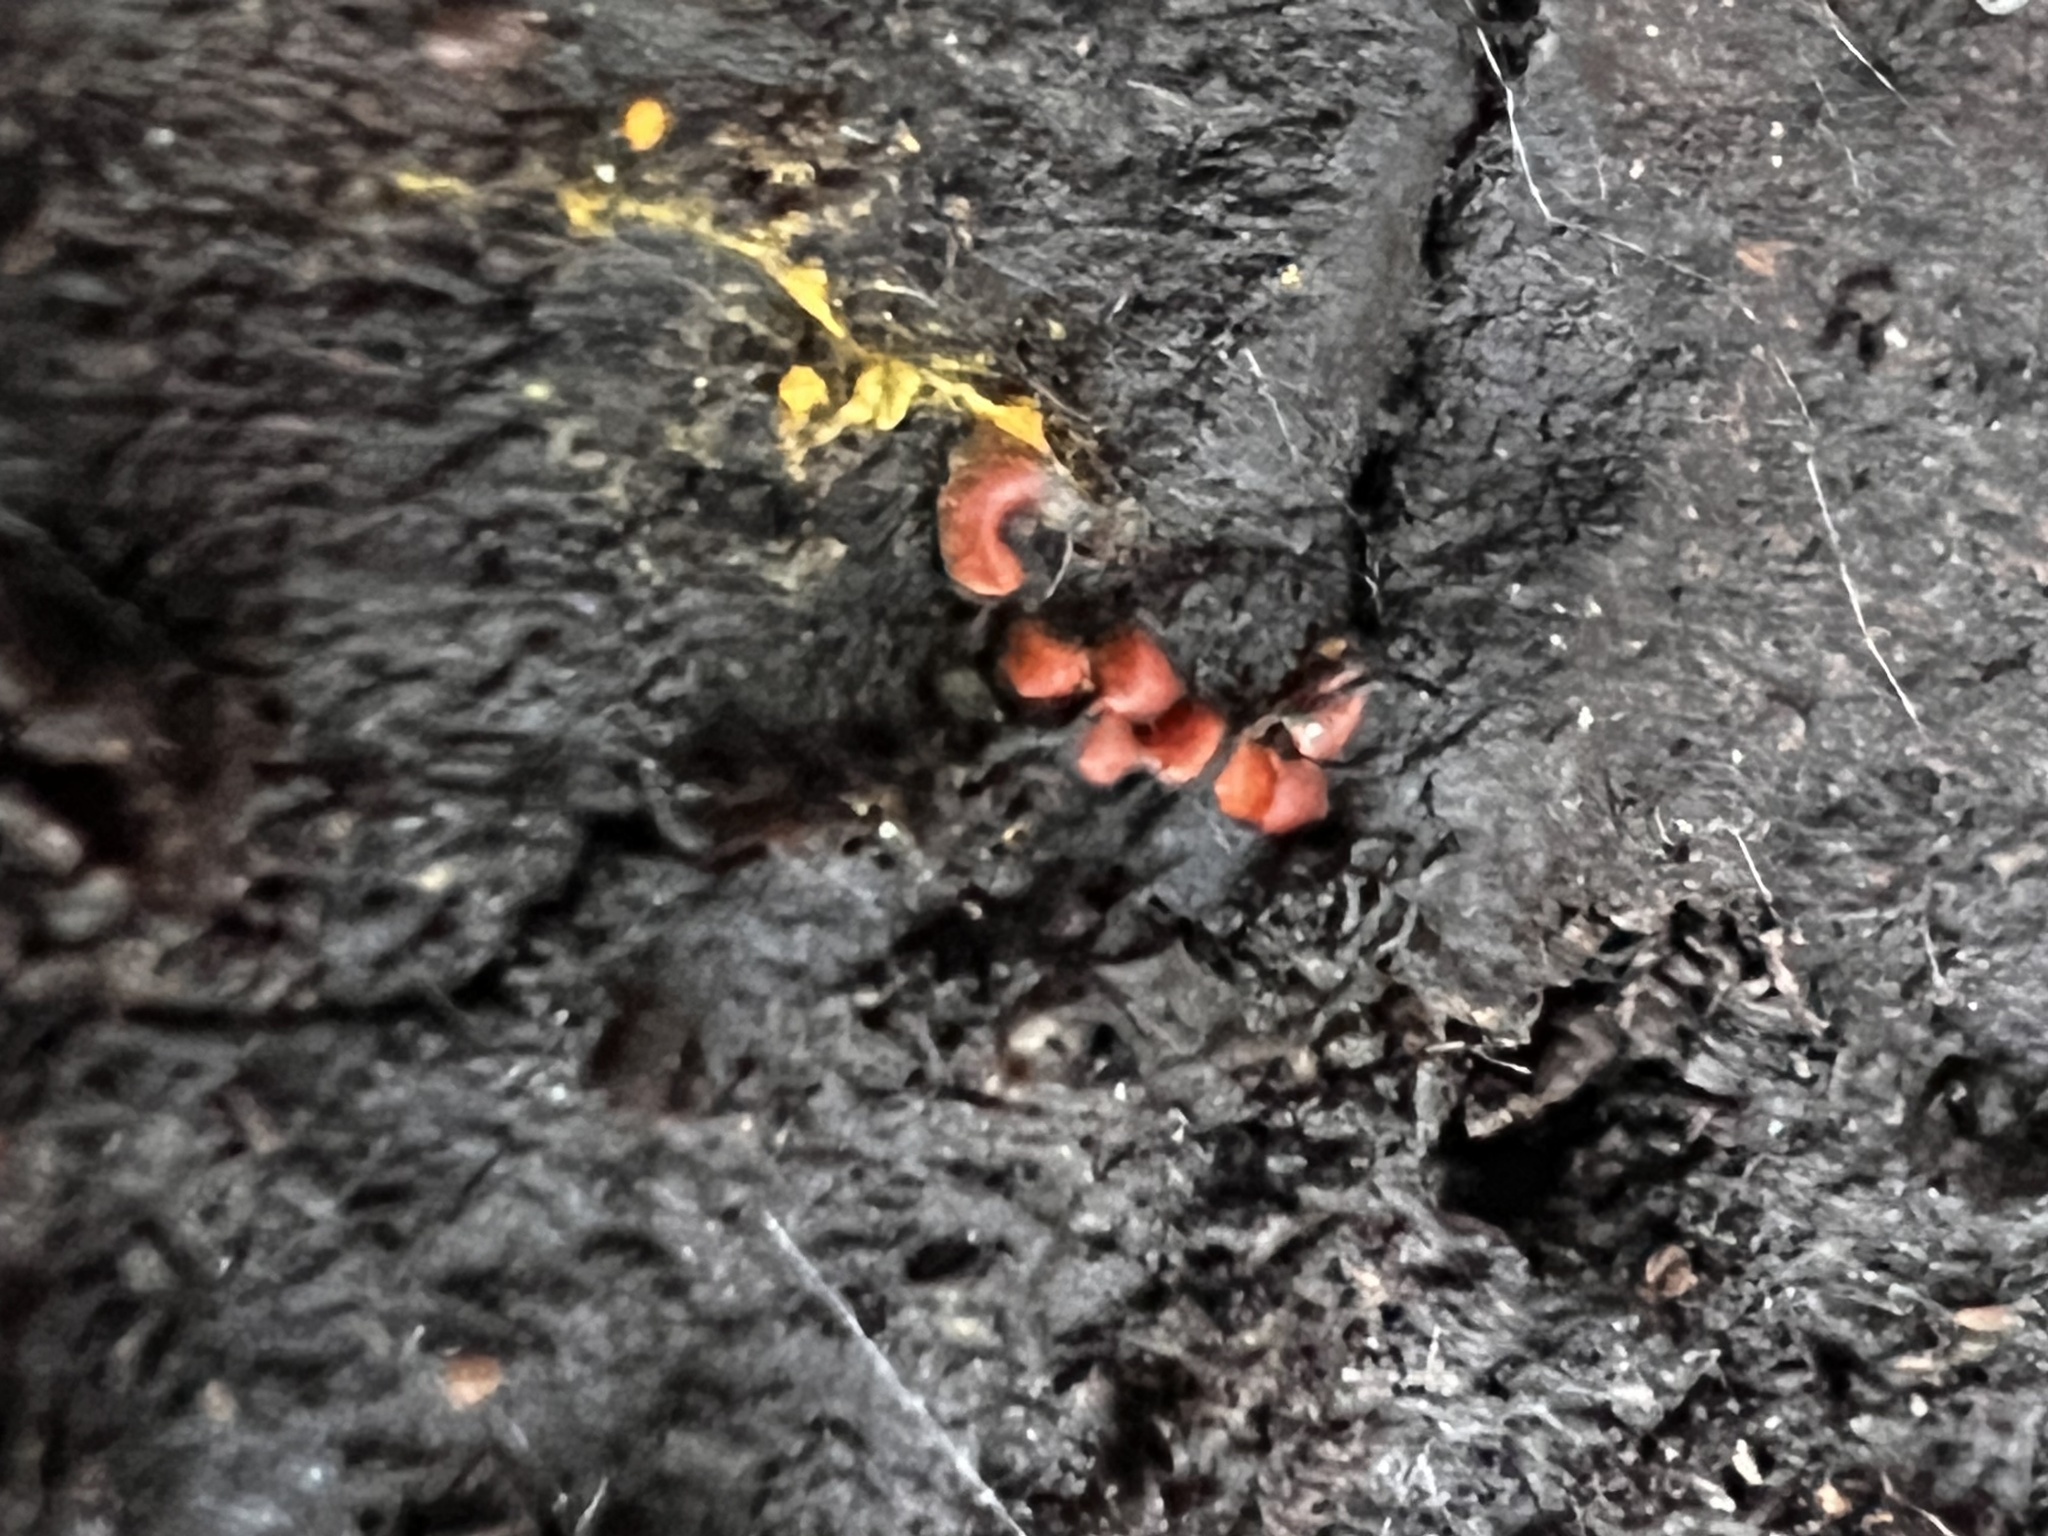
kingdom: Protozoa
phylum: Mycetozoa
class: Myxomycetes
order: Trichiales
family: Trichiaceae
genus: Perichaena
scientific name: Perichaena depressa
